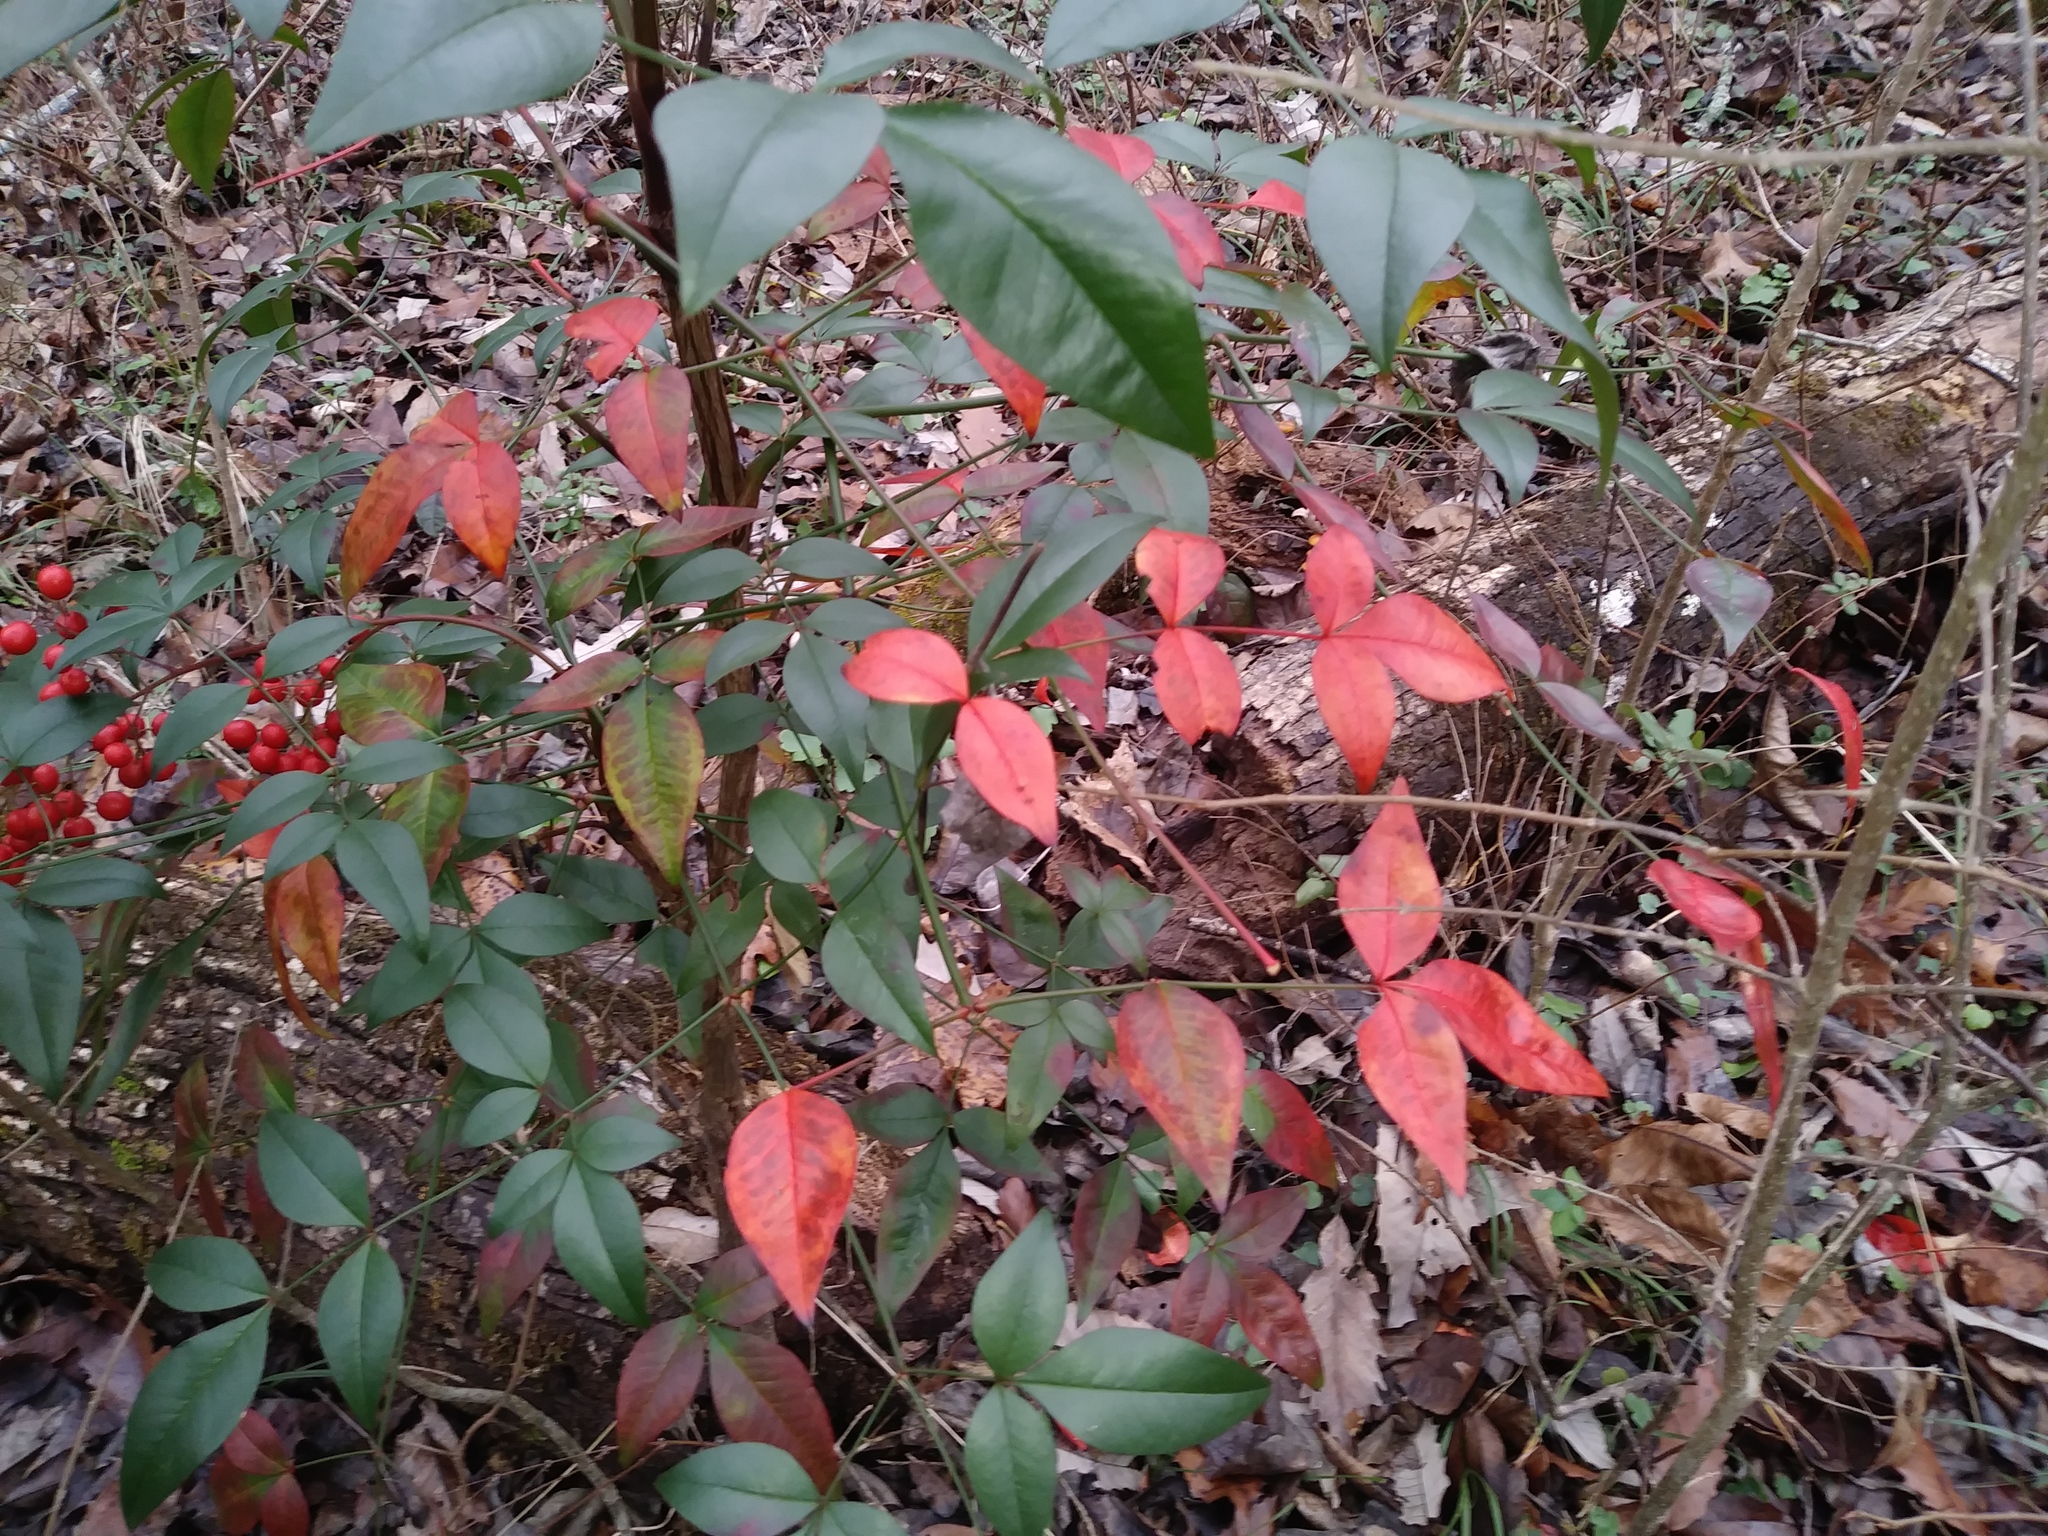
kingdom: Plantae
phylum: Tracheophyta
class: Magnoliopsida
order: Ranunculales
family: Berberidaceae
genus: Nandina
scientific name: Nandina domestica
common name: Sacred bamboo
